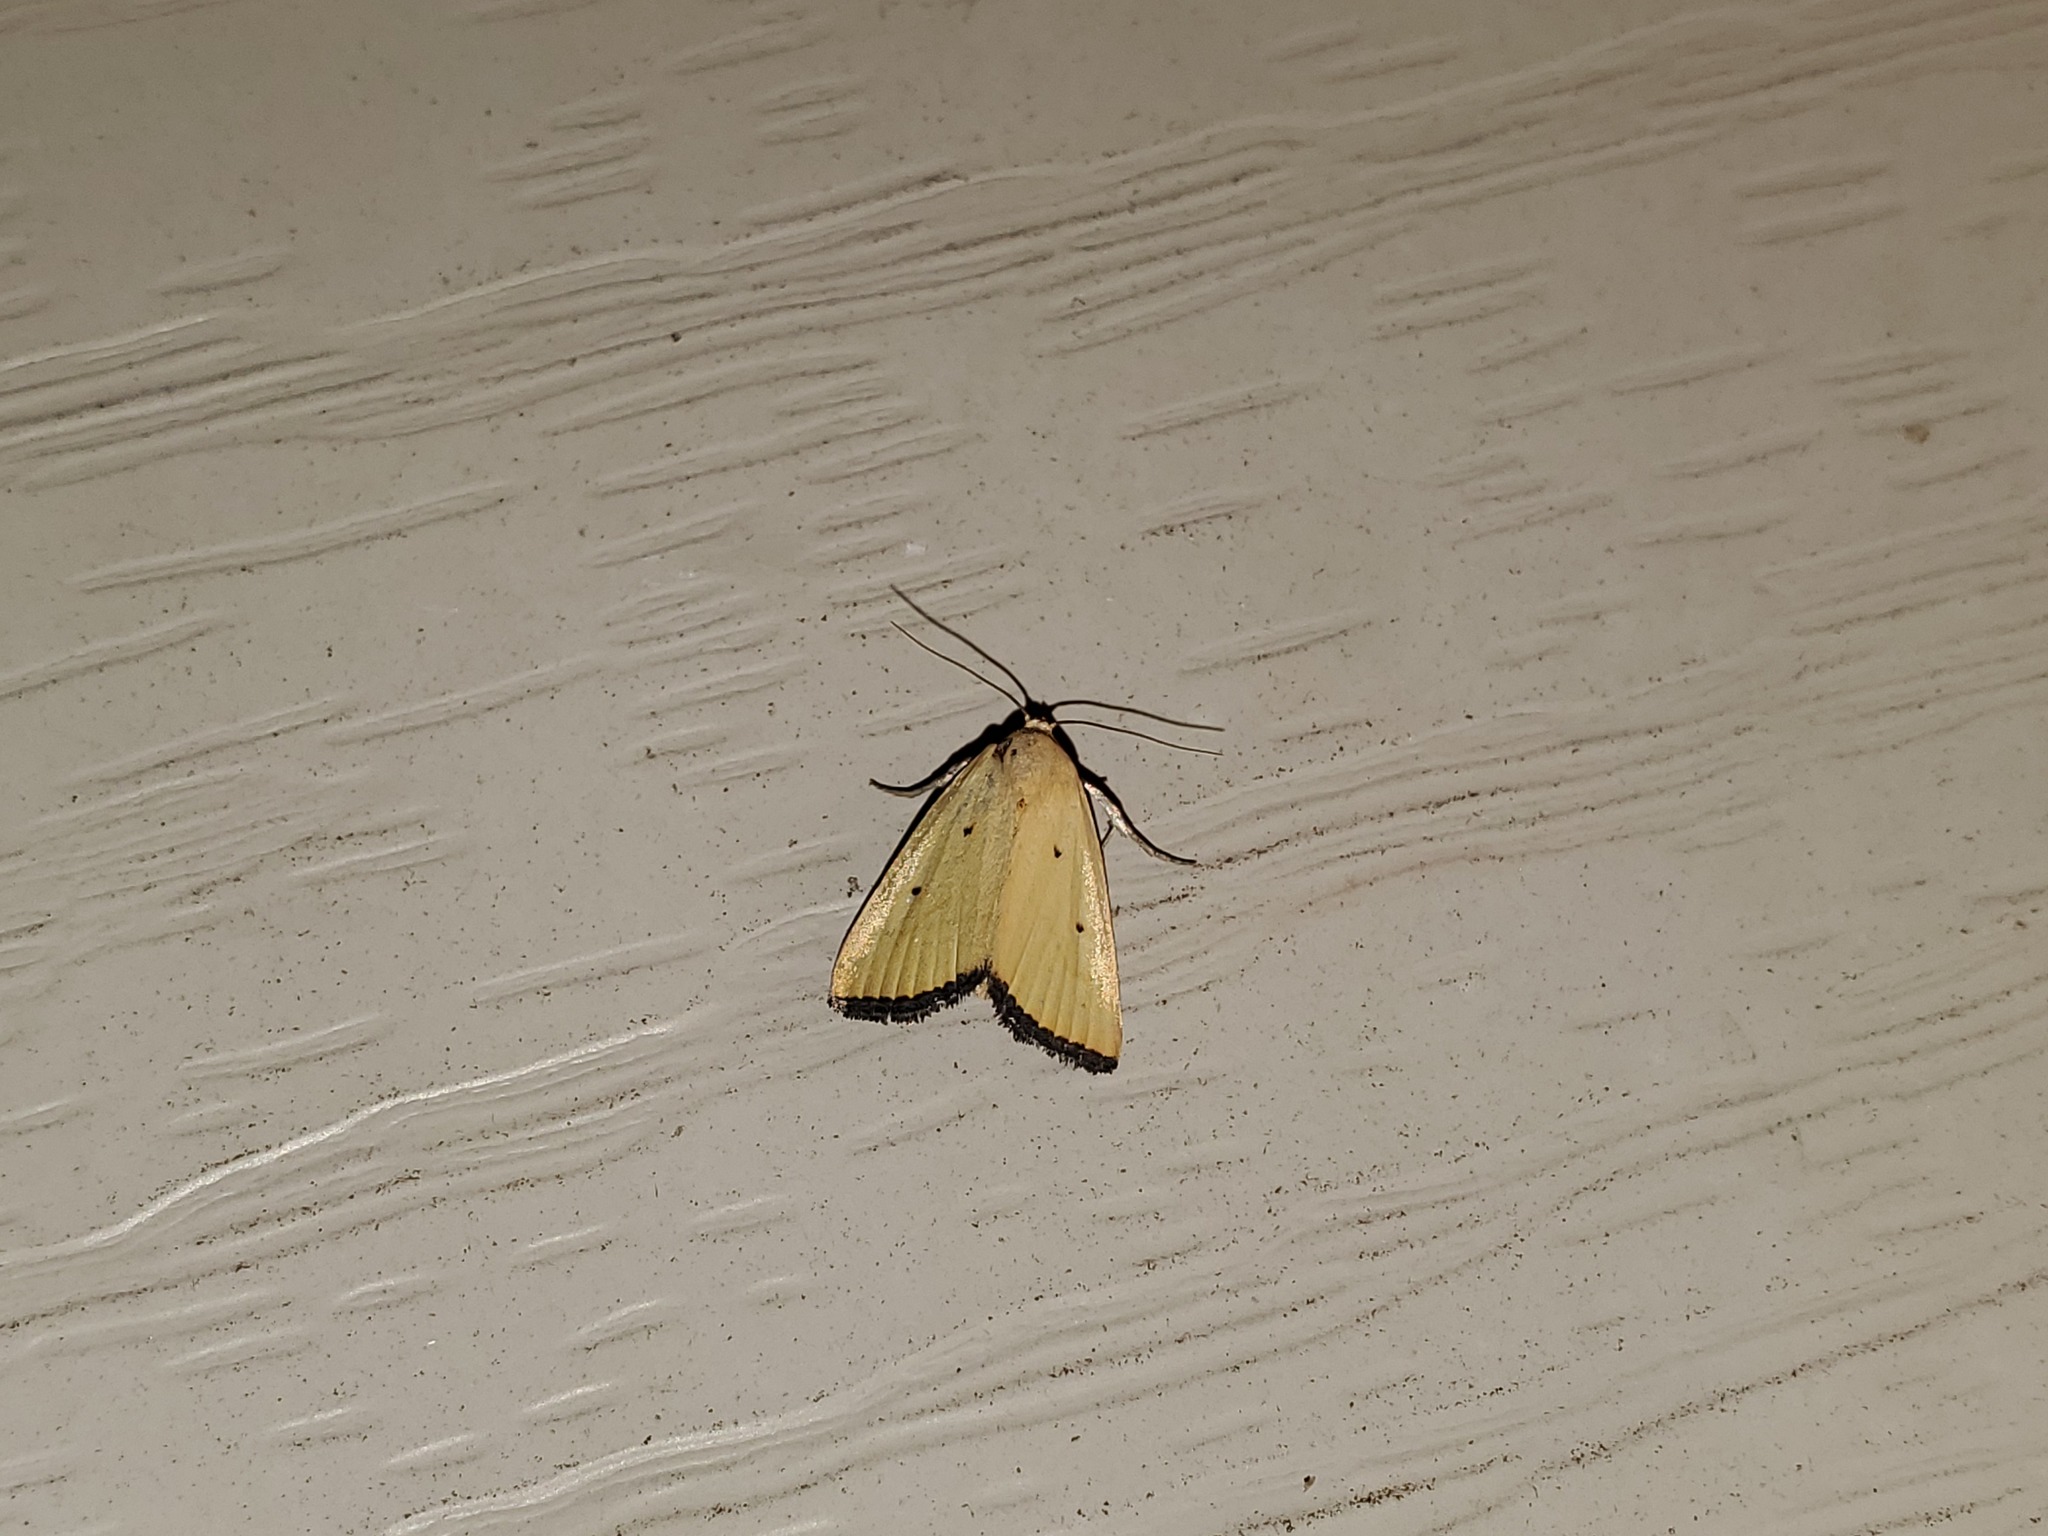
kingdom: Animalia
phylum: Arthropoda
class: Insecta
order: Lepidoptera
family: Noctuidae
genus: Marimatha
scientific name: Marimatha nigrofimbria
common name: Black-bordered lemon moth
